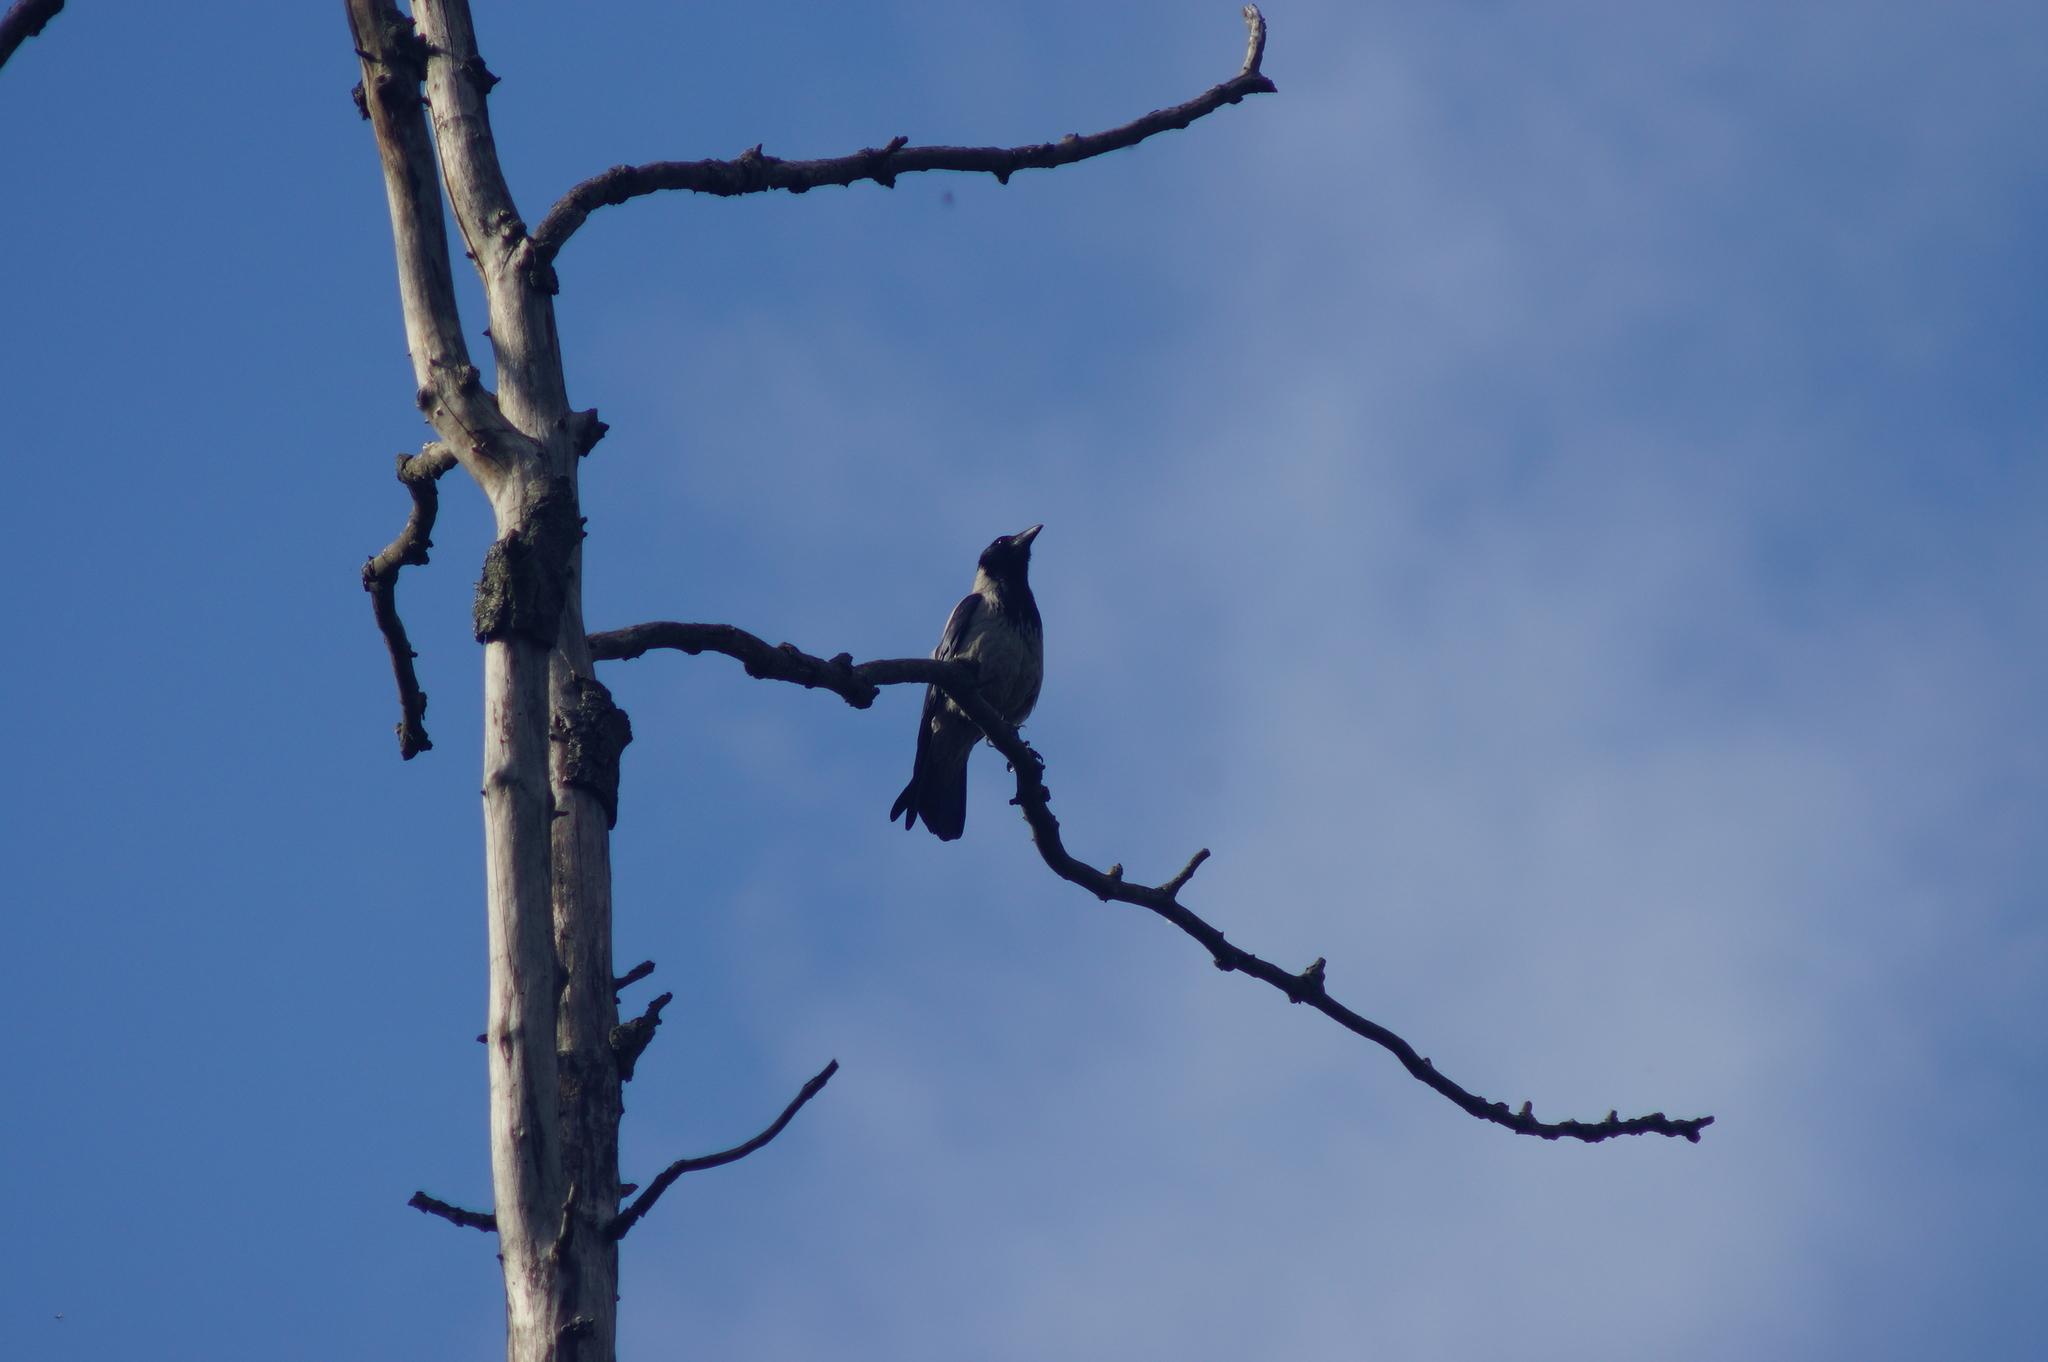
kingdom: Animalia
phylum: Chordata
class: Aves
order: Passeriformes
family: Corvidae
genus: Corvus
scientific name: Corvus cornix
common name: Hooded crow
